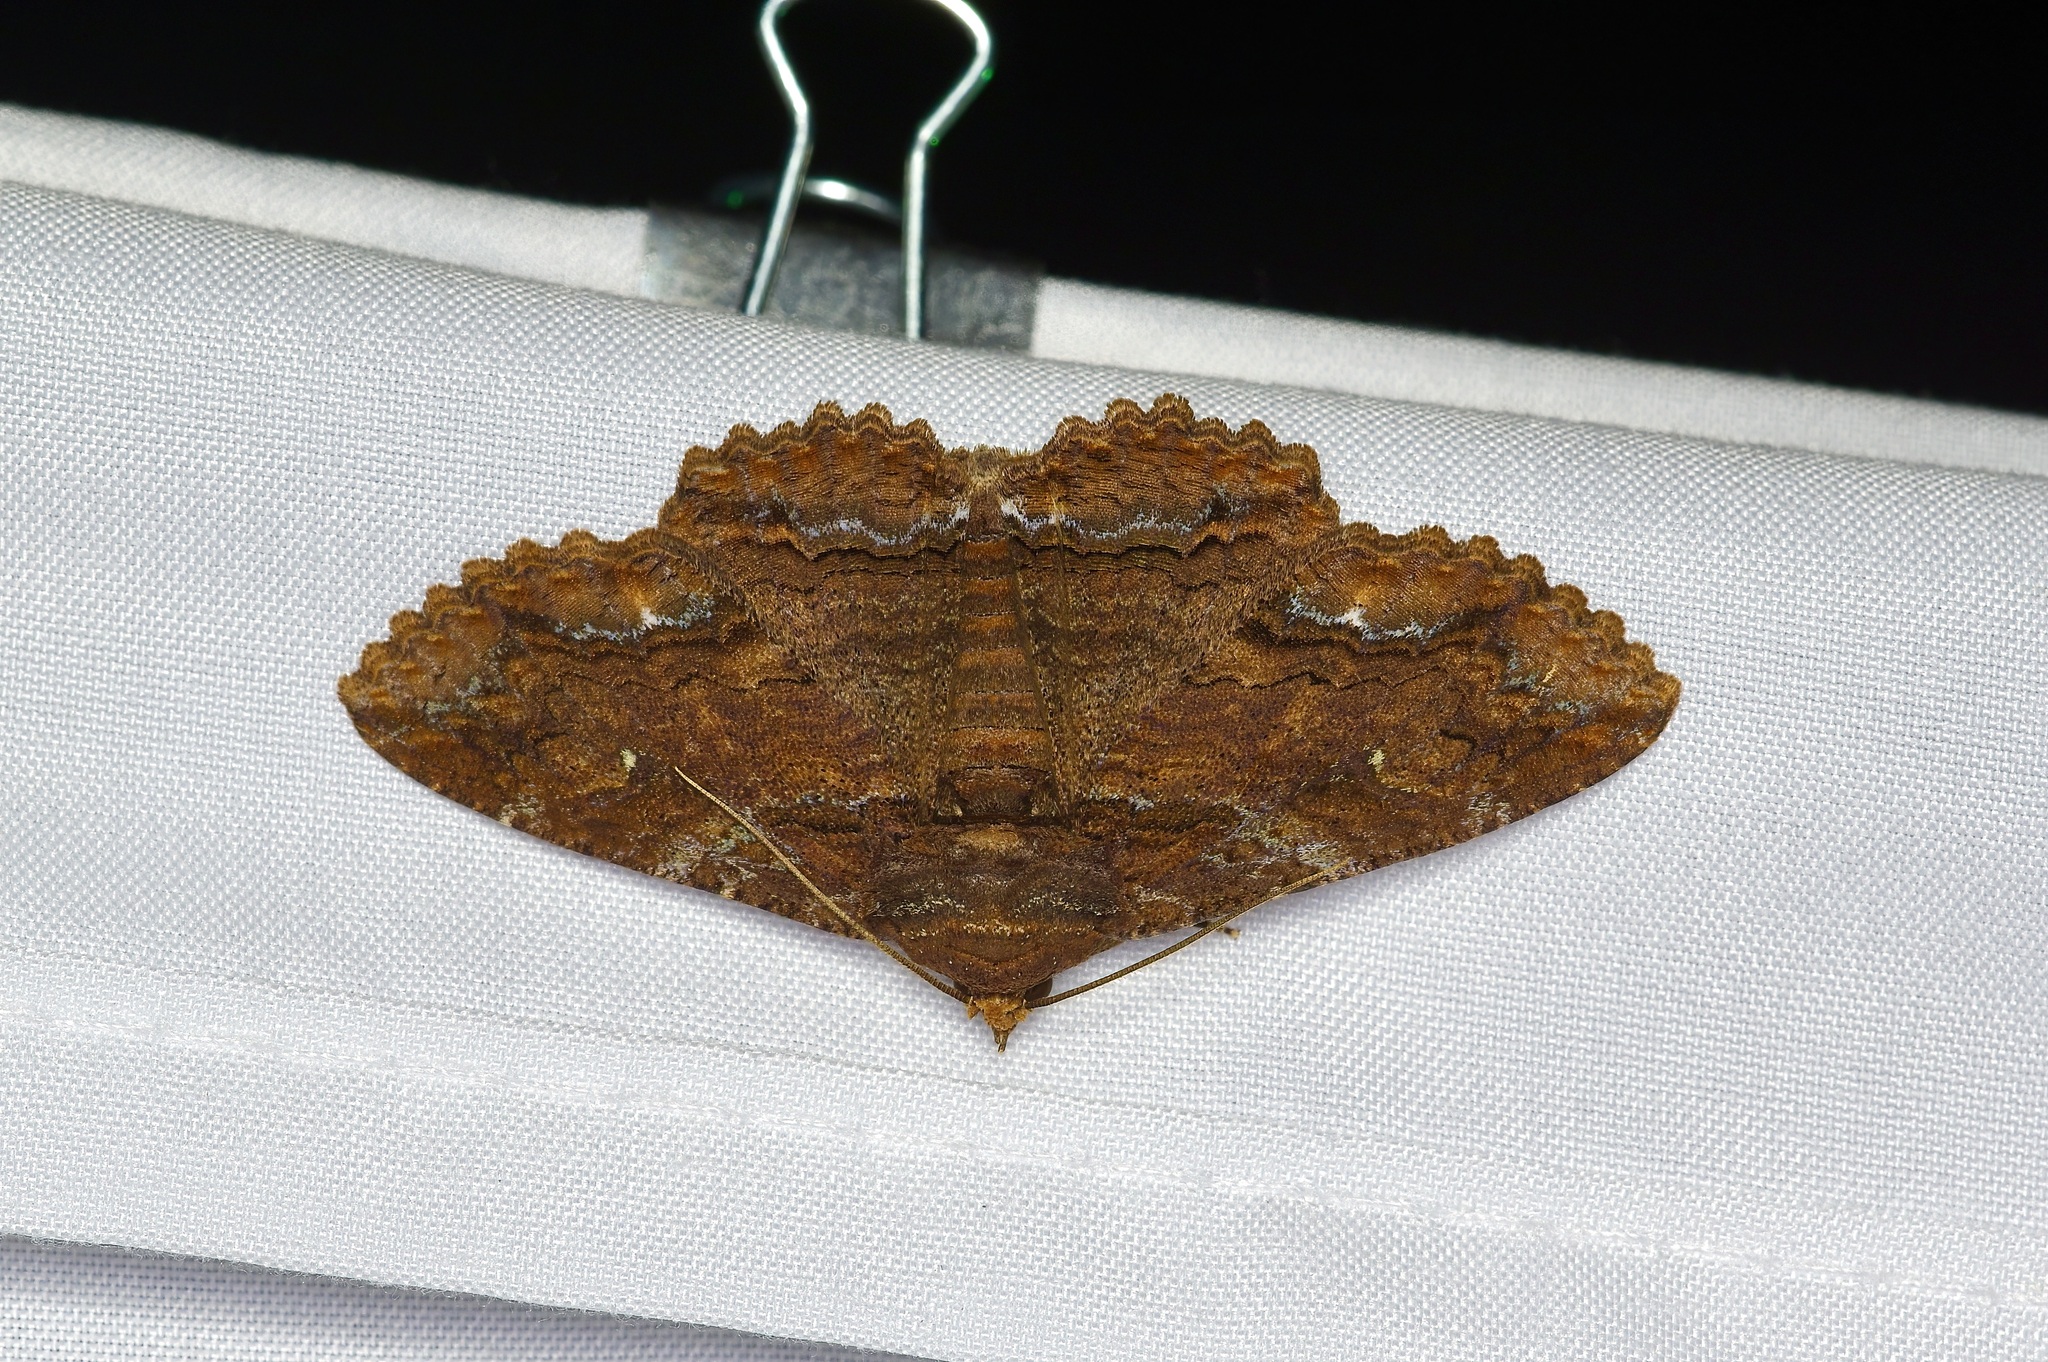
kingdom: Animalia
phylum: Arthropoda
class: Insecta
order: Lepidoptera
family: Erebidae
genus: Zale
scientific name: Zale lunata
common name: Lunate zale moth
